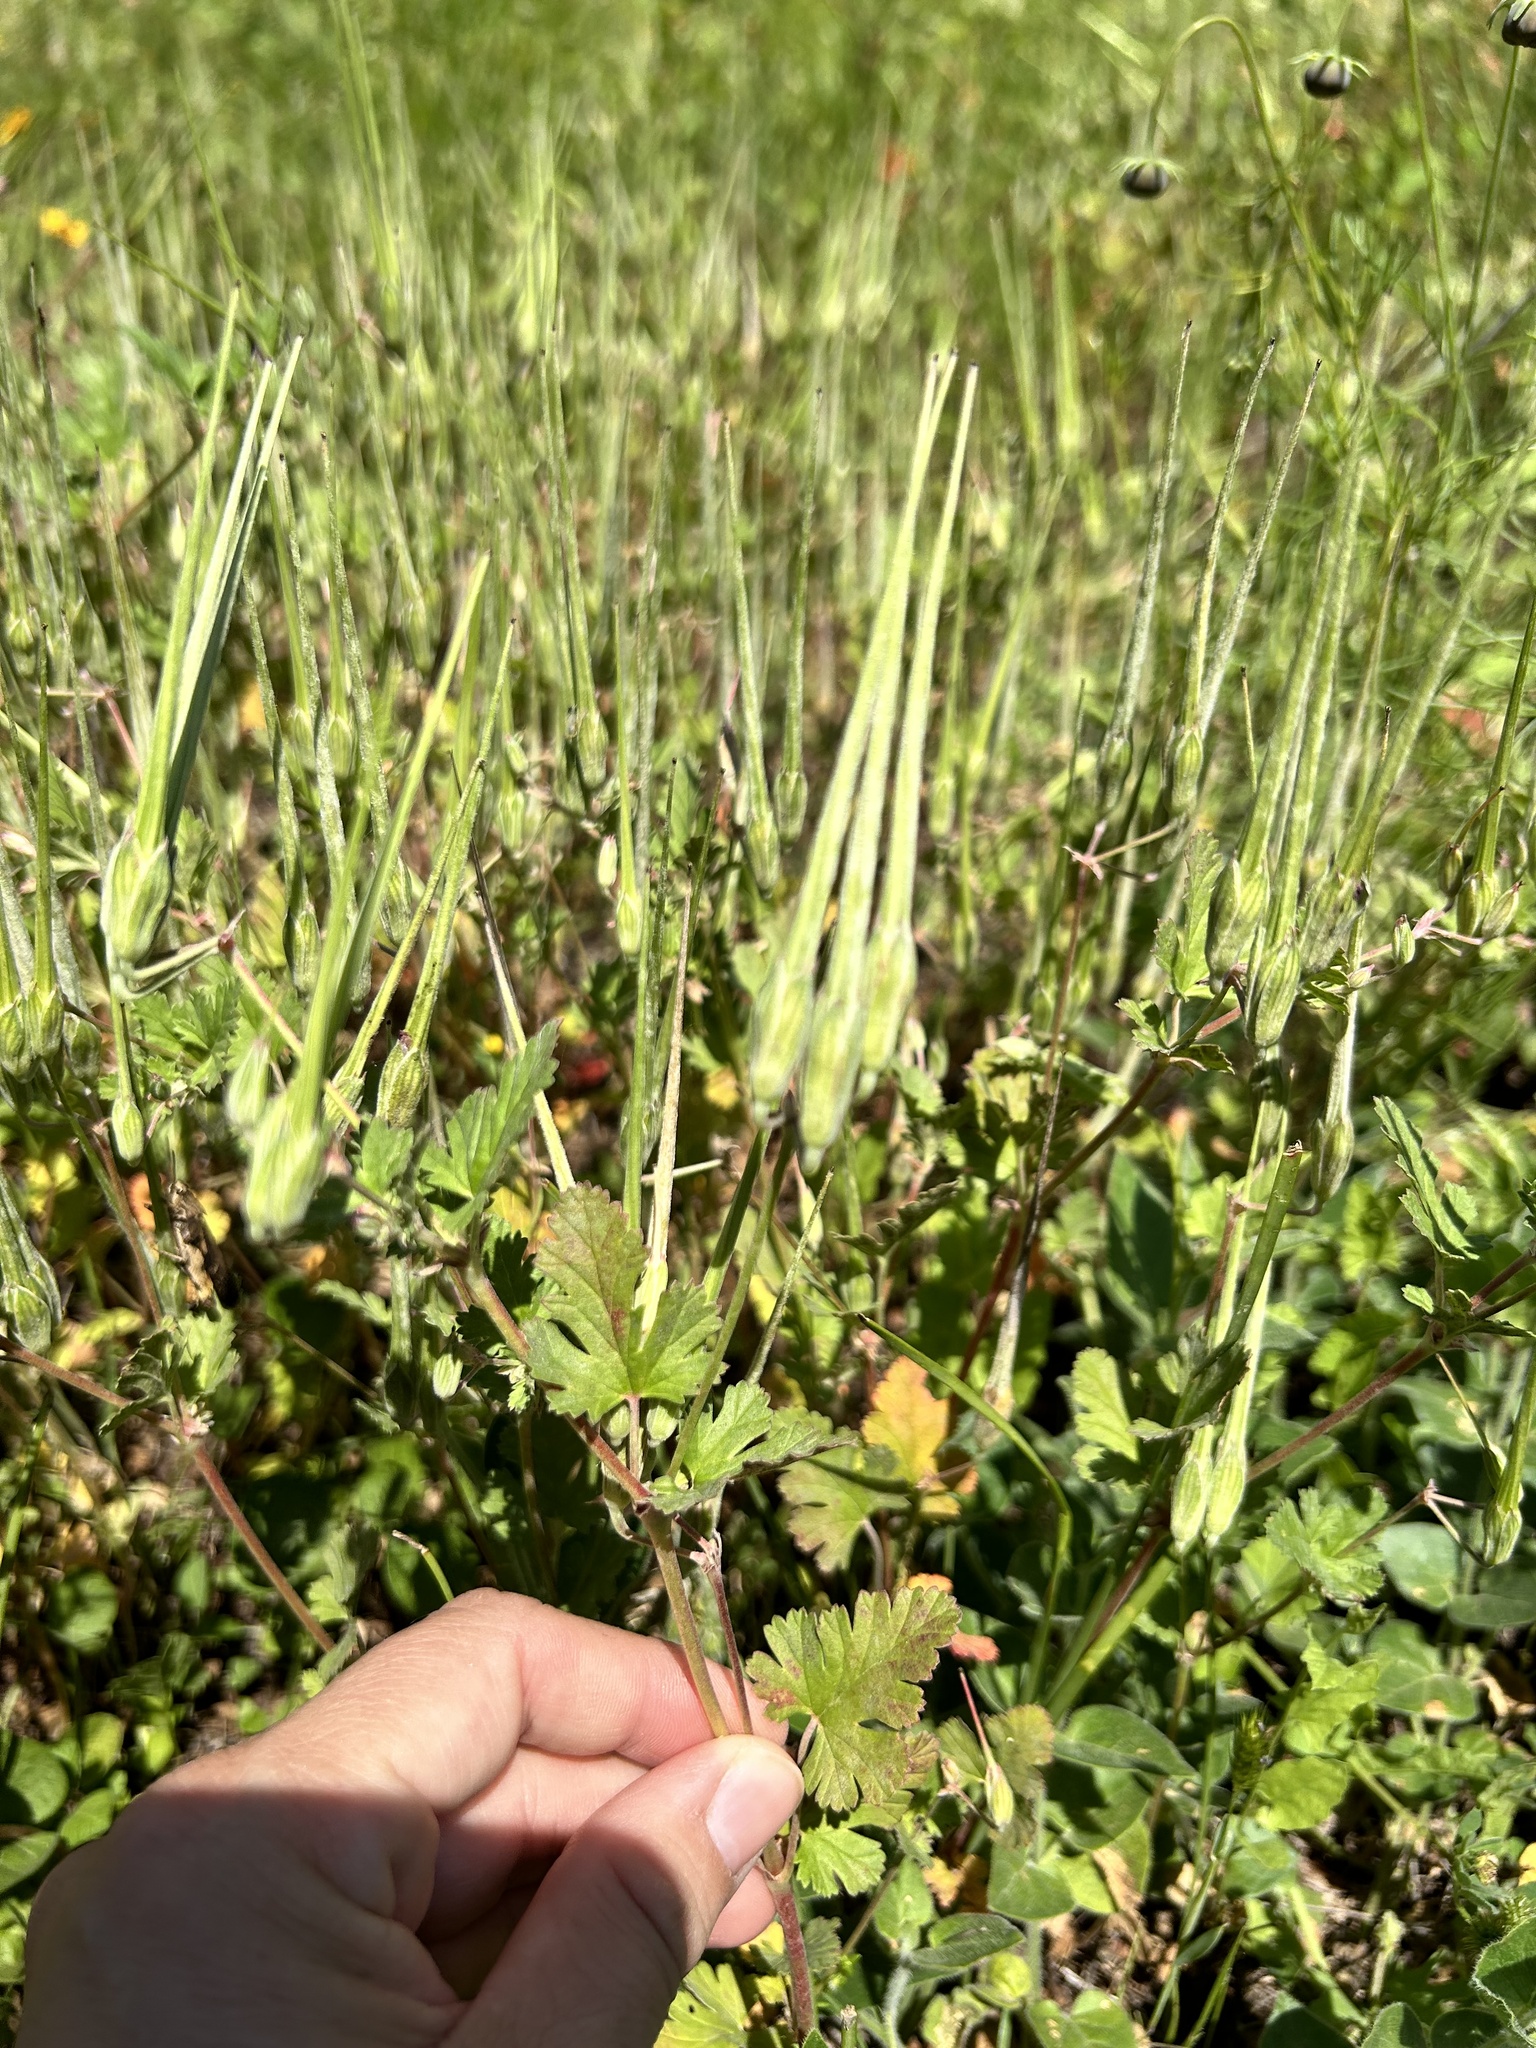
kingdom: Plantae
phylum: Tracheophyta
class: Magnoliopsida
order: Geraniales
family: Geraniaceae
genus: Erodium
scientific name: Erodium texanum
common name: Texas stork's-bill
